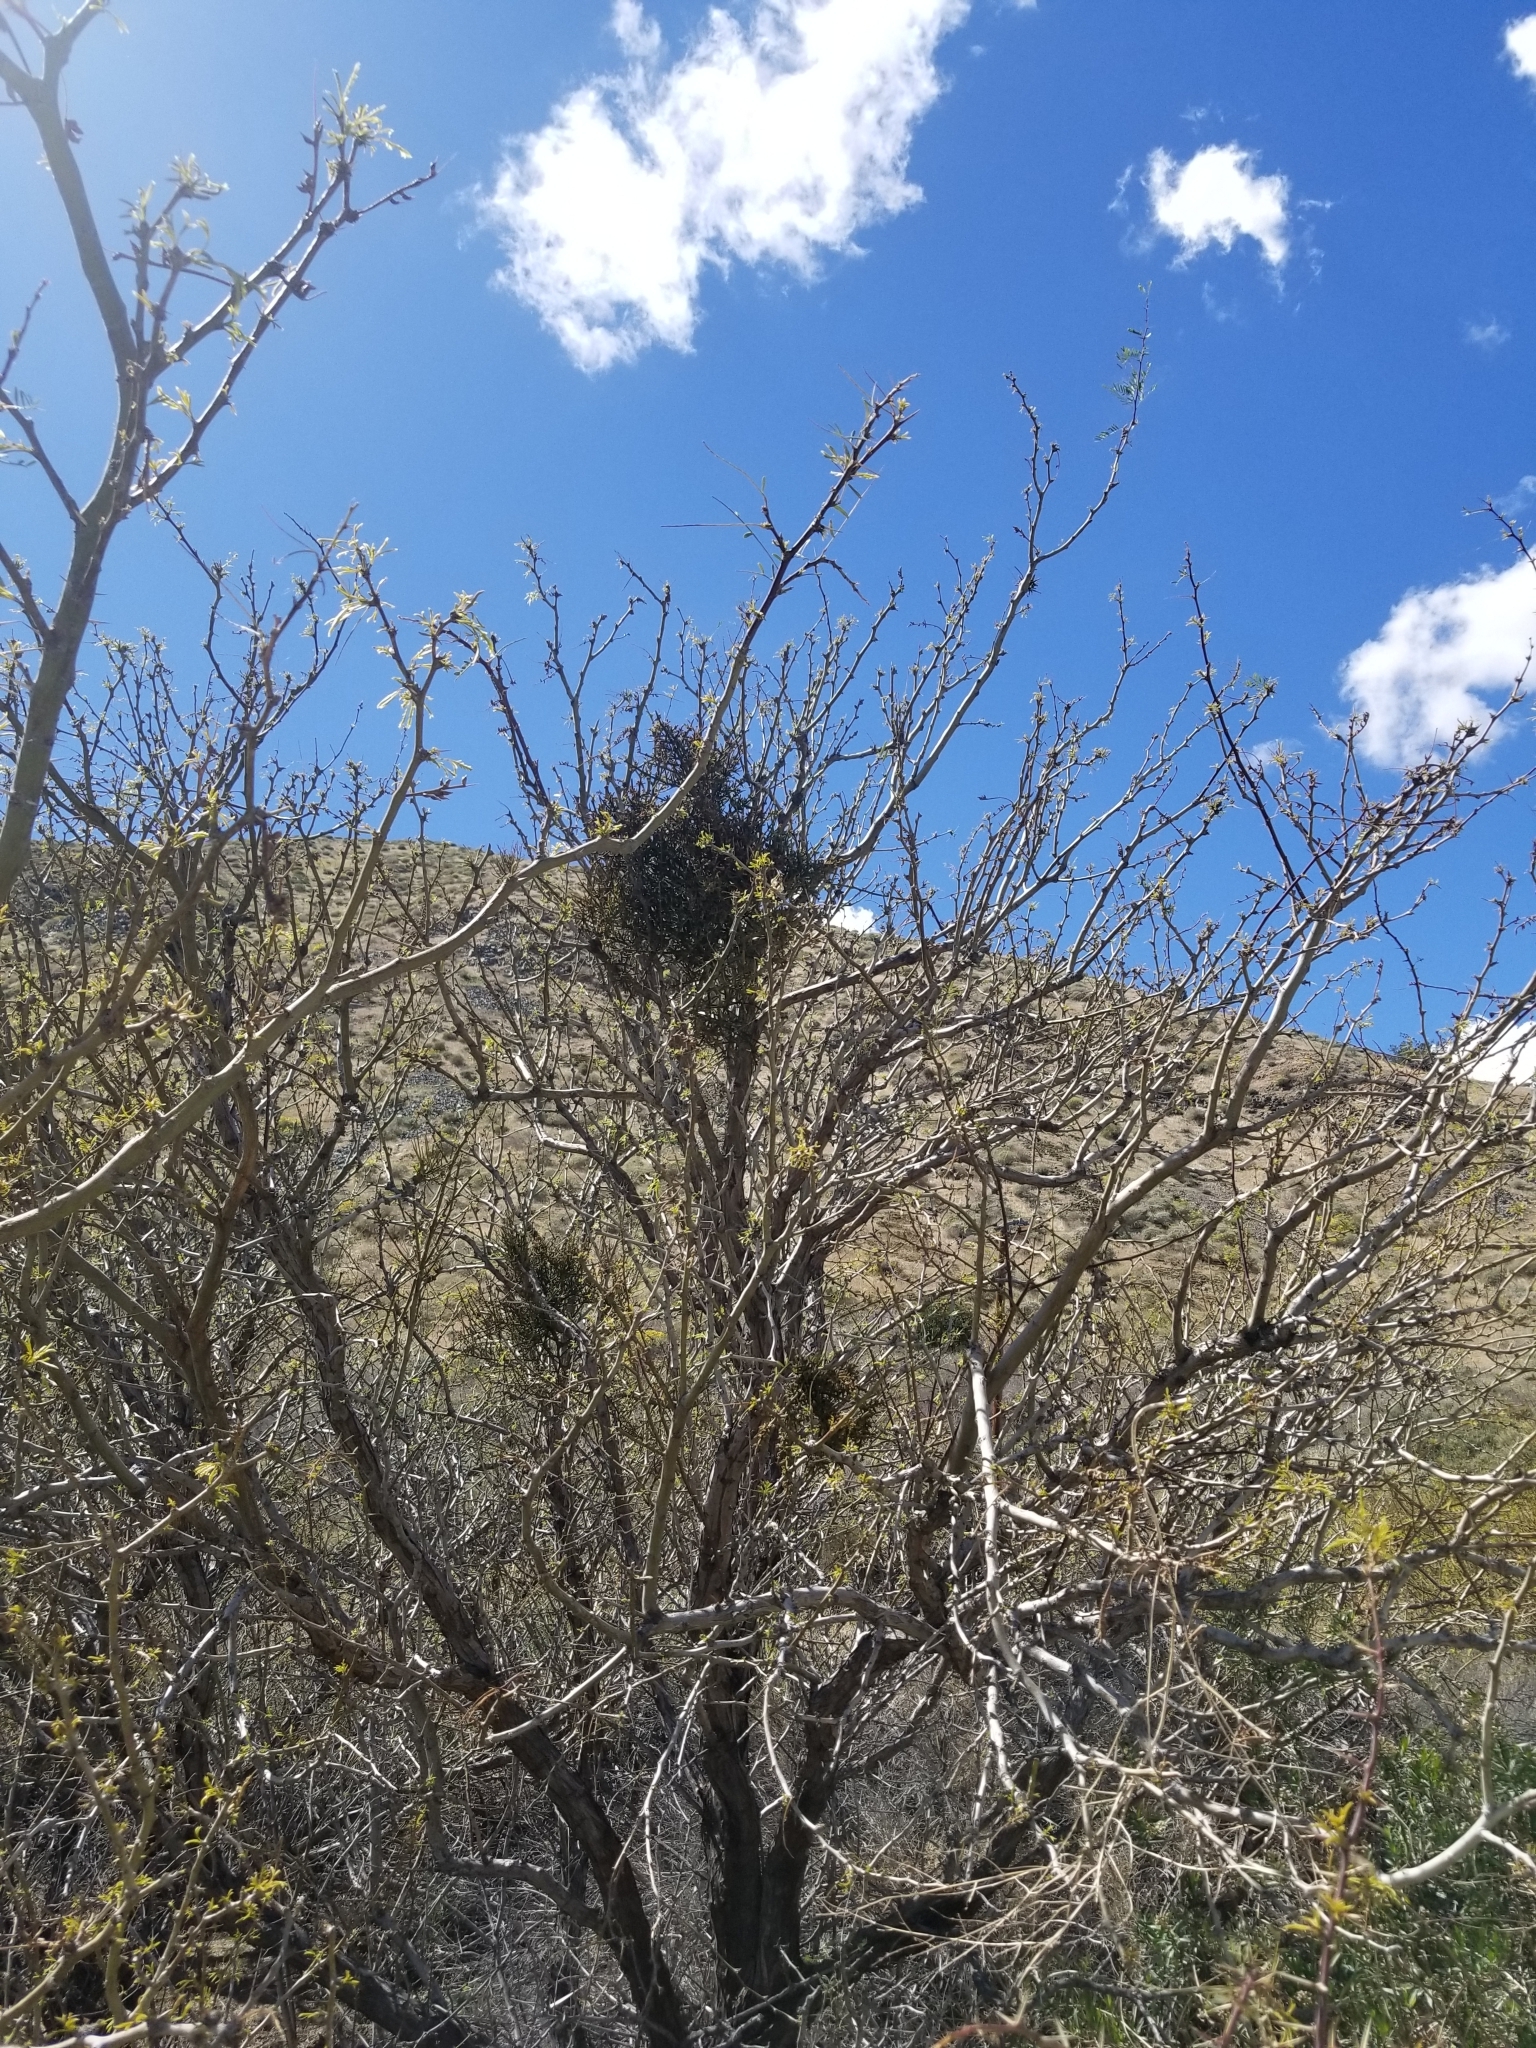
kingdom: Plantae
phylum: Tracheophyta
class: Magnoliopsida
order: Santalales
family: Viscaceae
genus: Phoradendron
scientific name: Phoradendron californicum
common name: Acacia mistletoe
